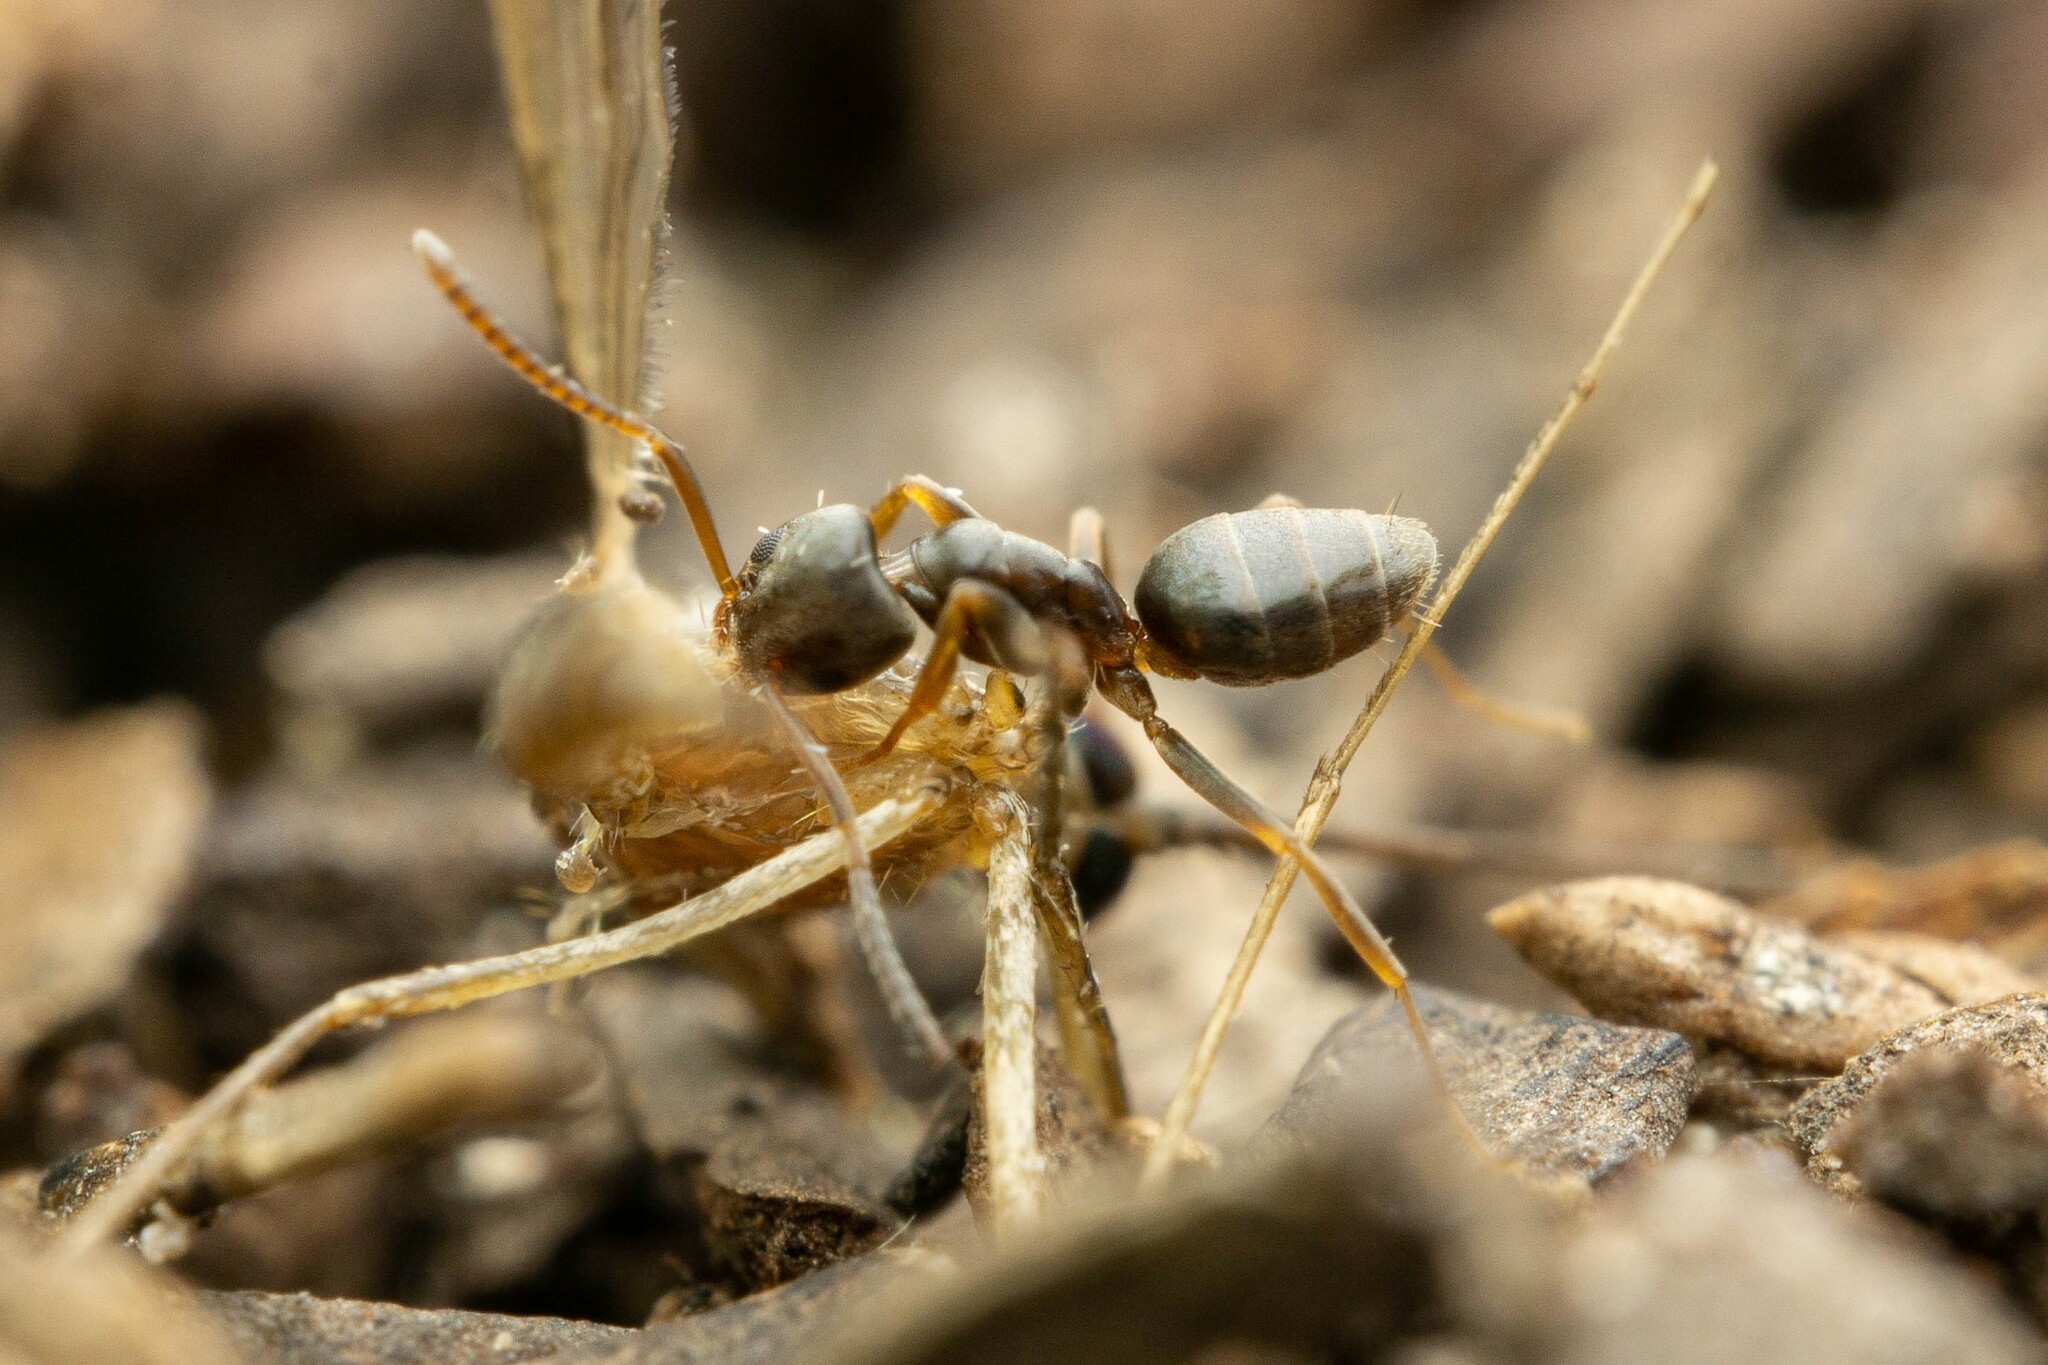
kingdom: Animalia
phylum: Arthropoda
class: Insecta
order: Hymenoptera
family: Formicidae
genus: Tapinoma
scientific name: Tapinoma sessile
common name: Odorous house ant
